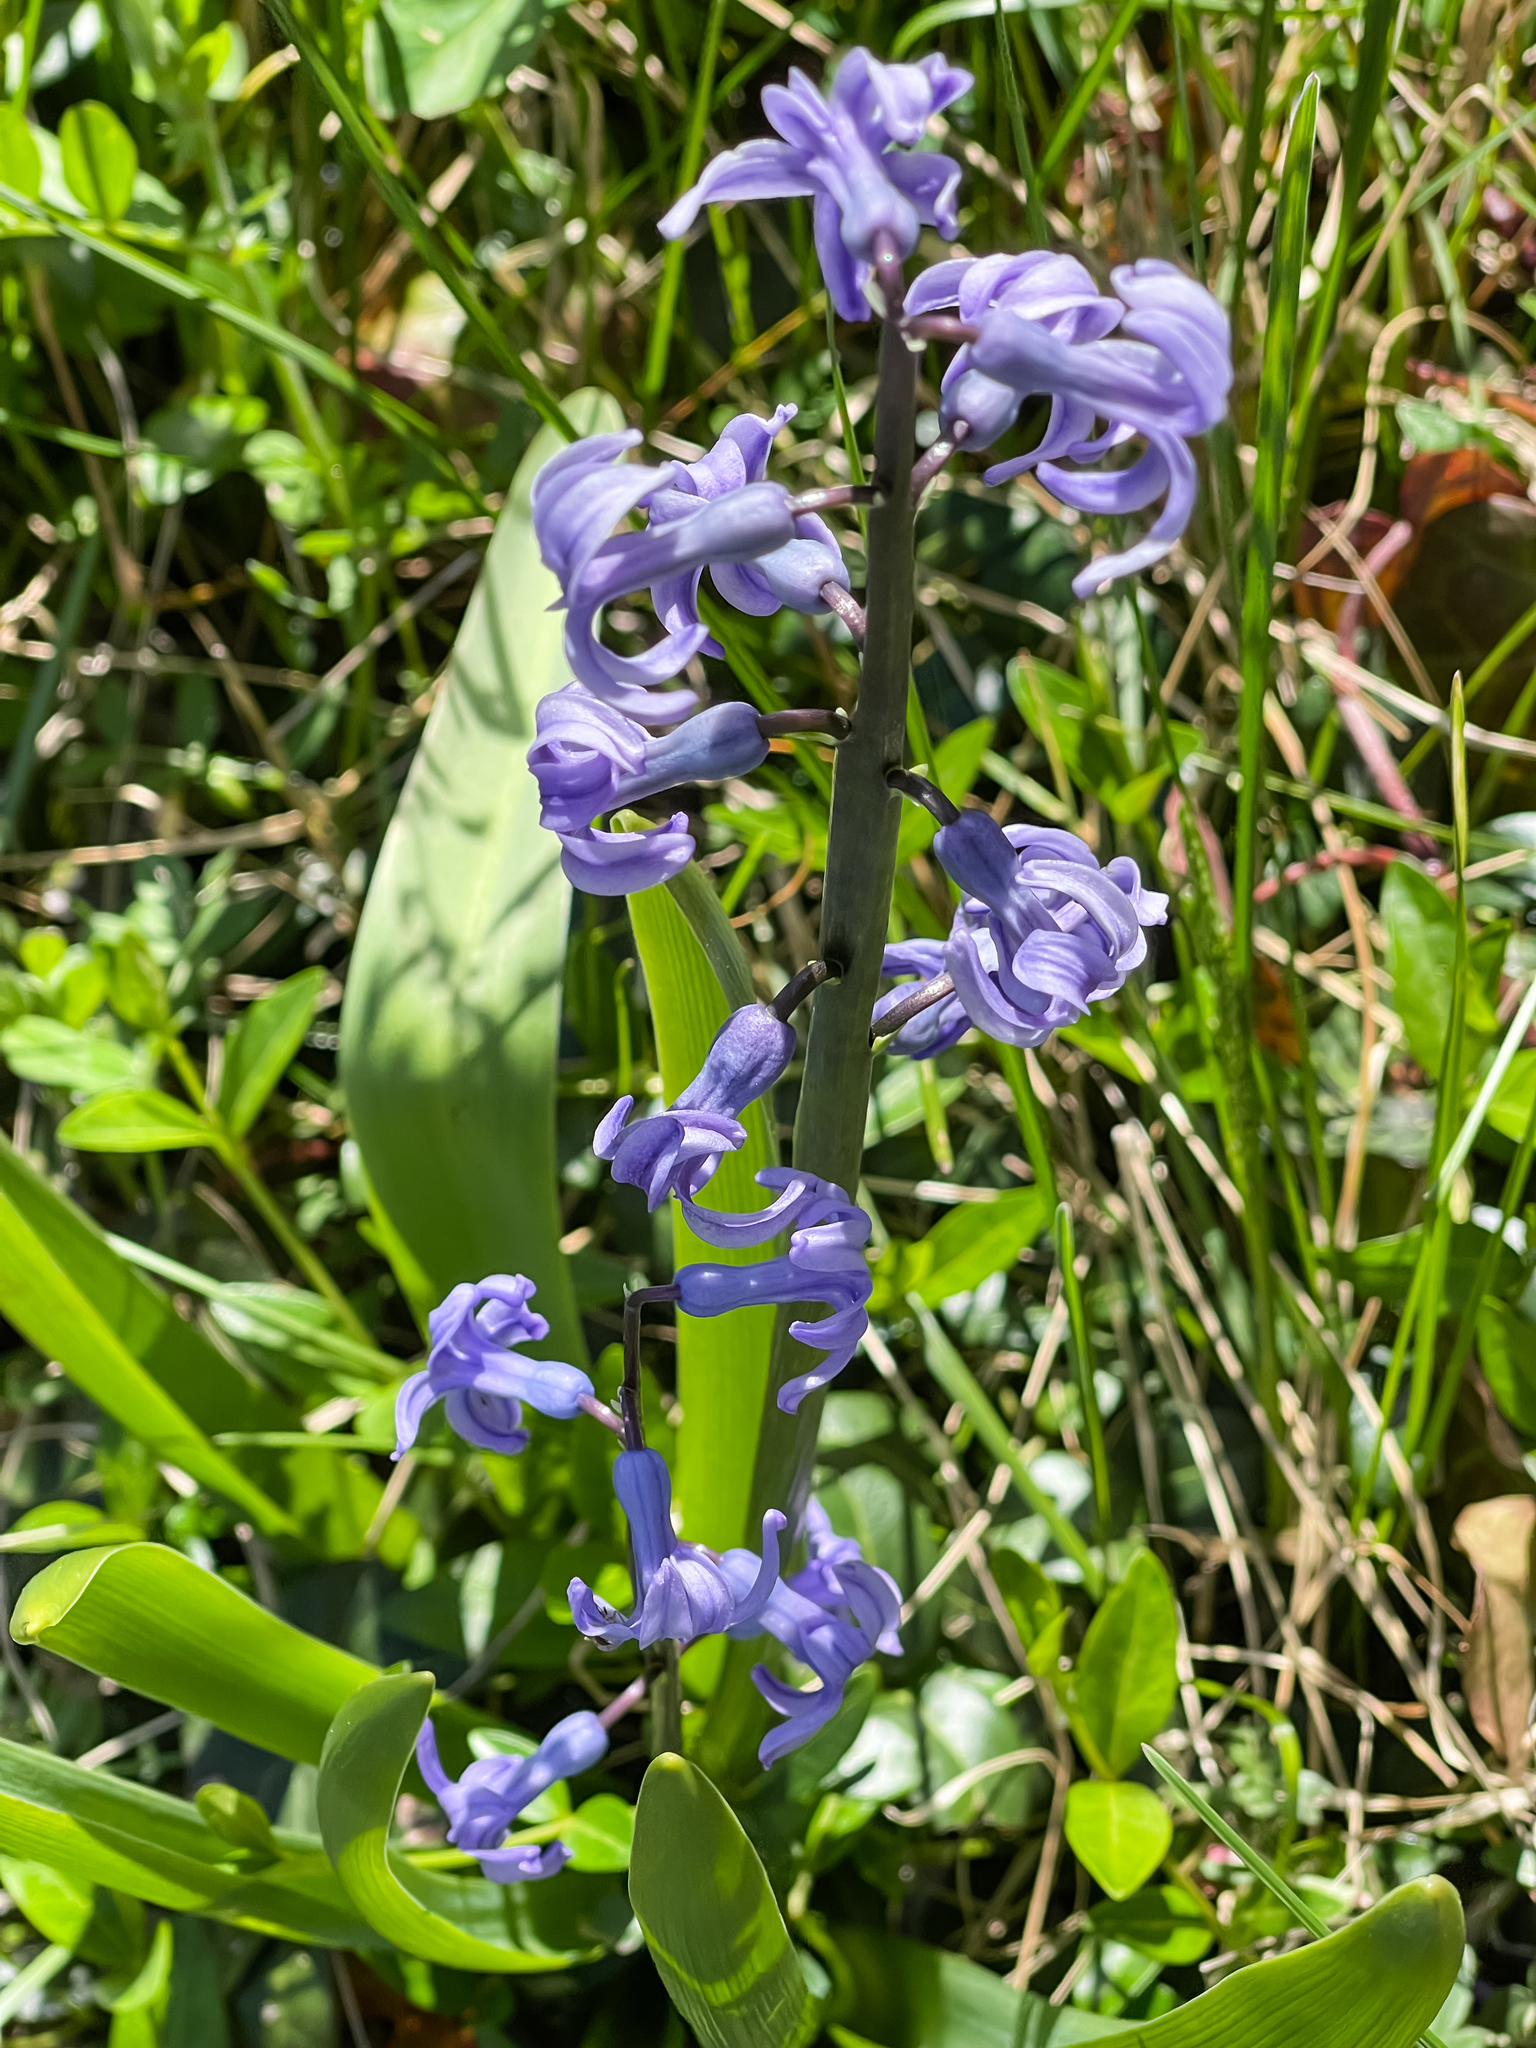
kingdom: Plantae
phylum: Tracheophyta
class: Liliopsida
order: Asparagales
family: Asparagaceae
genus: Hyacinthus
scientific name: Hyacinthus orientalis
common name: Hyacinth
